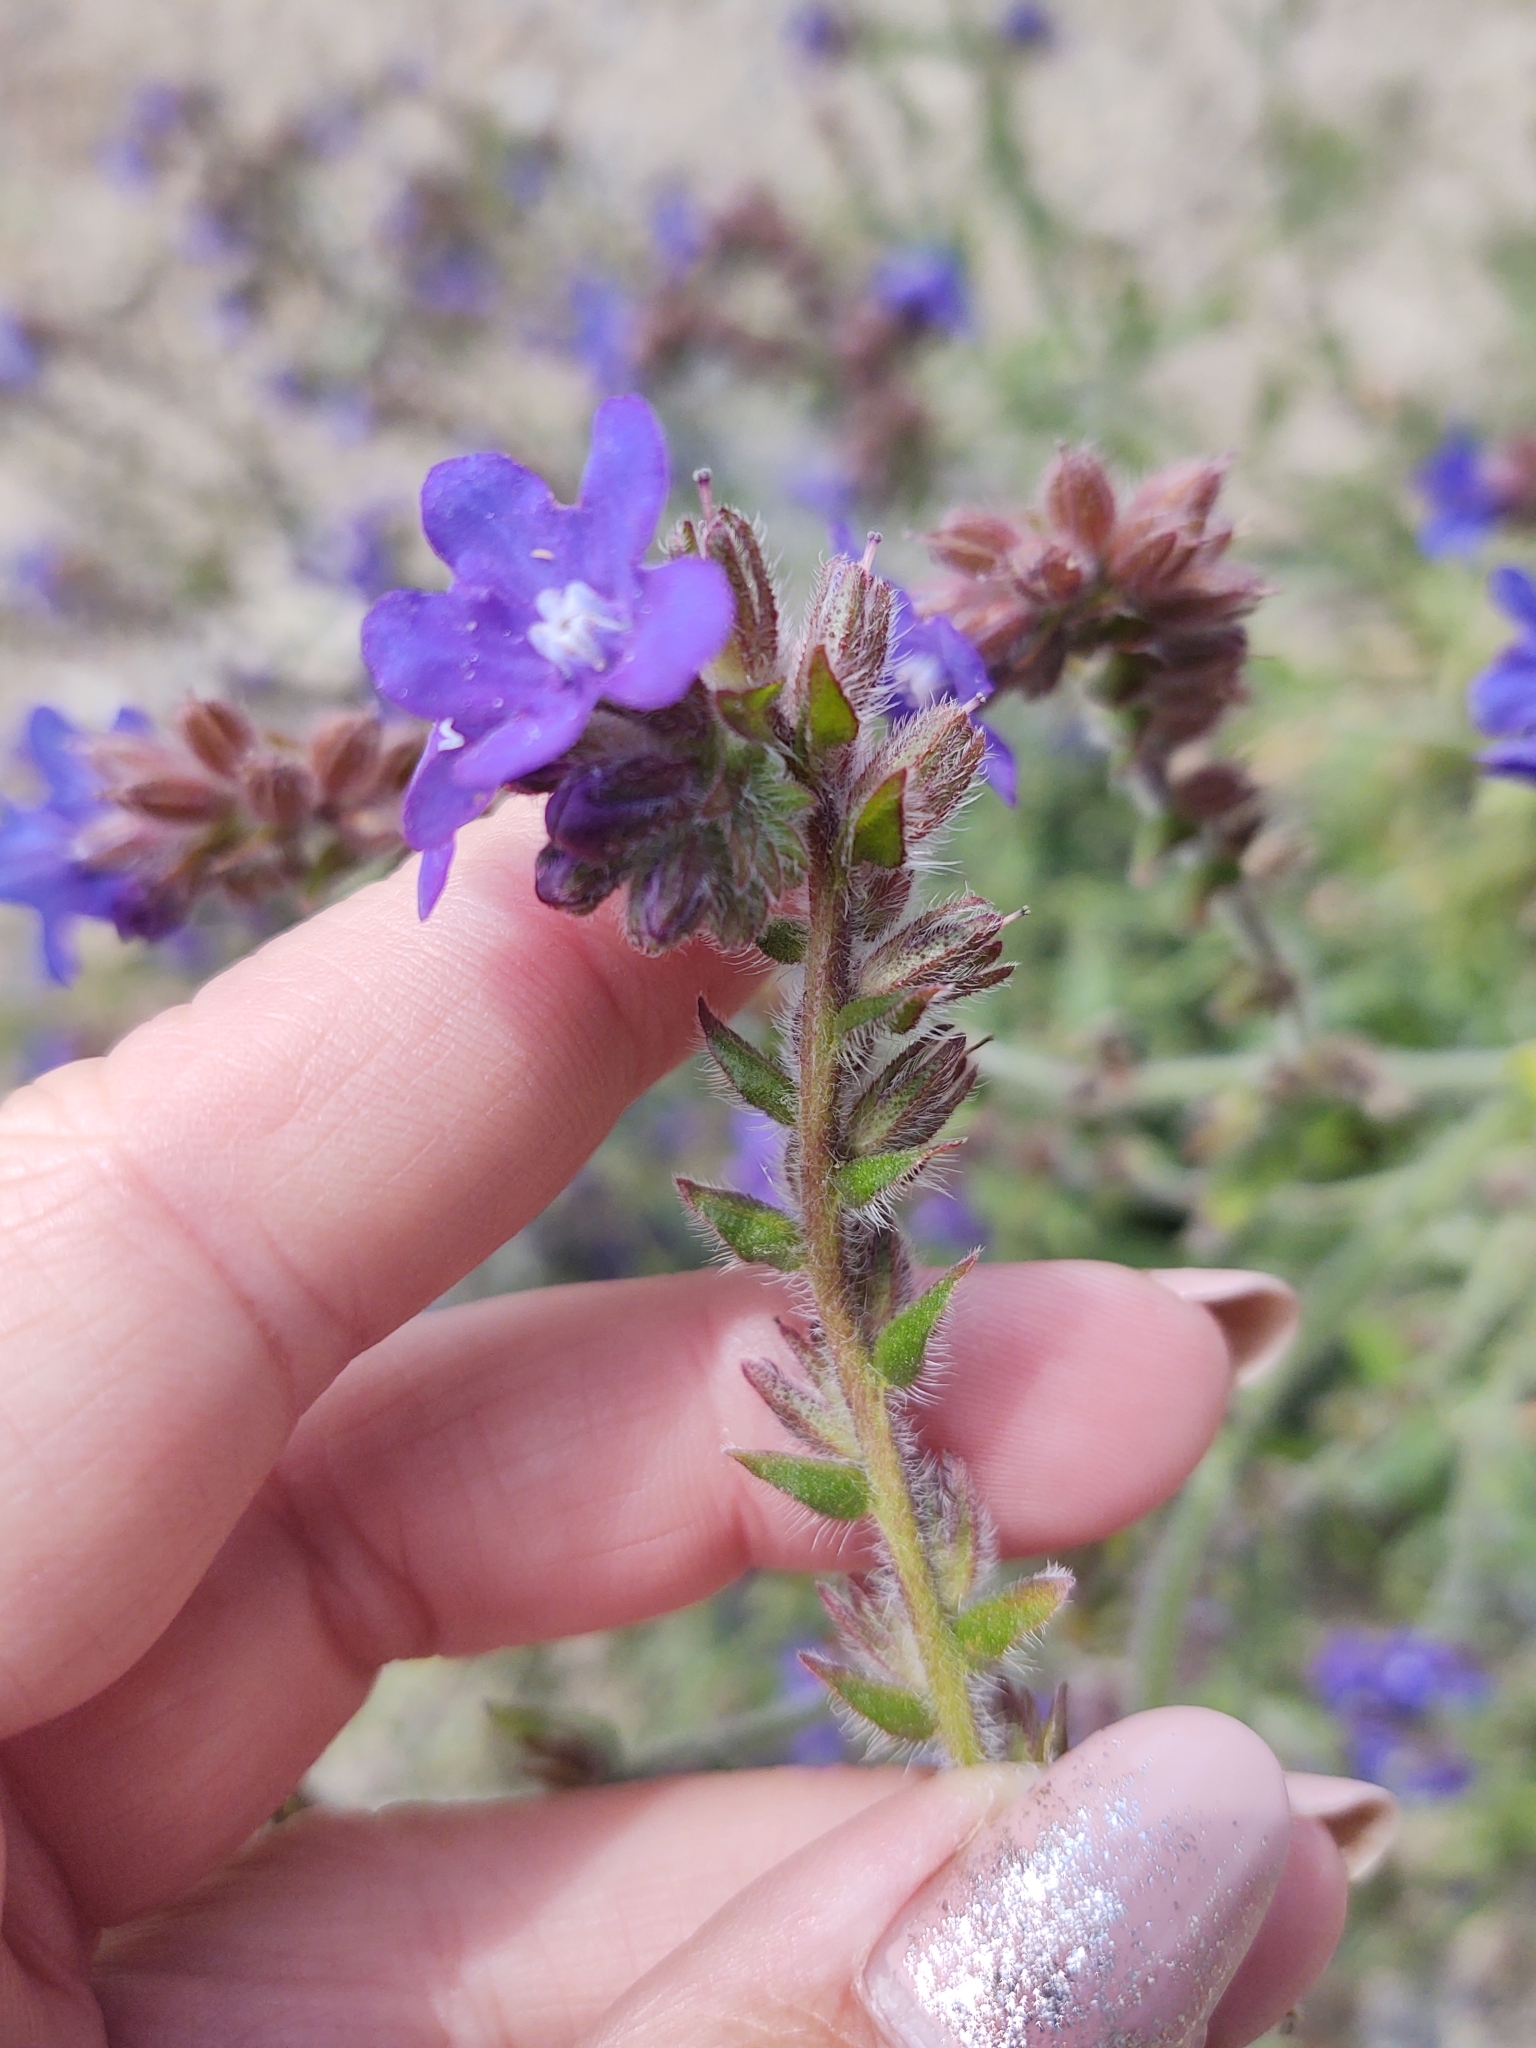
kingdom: Plantae
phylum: Tracheophyta
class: Magnoliopsida
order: Boraginales
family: Boraginaceae
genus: Anchusa
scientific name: Anchusa officinalis
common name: Alkanet
